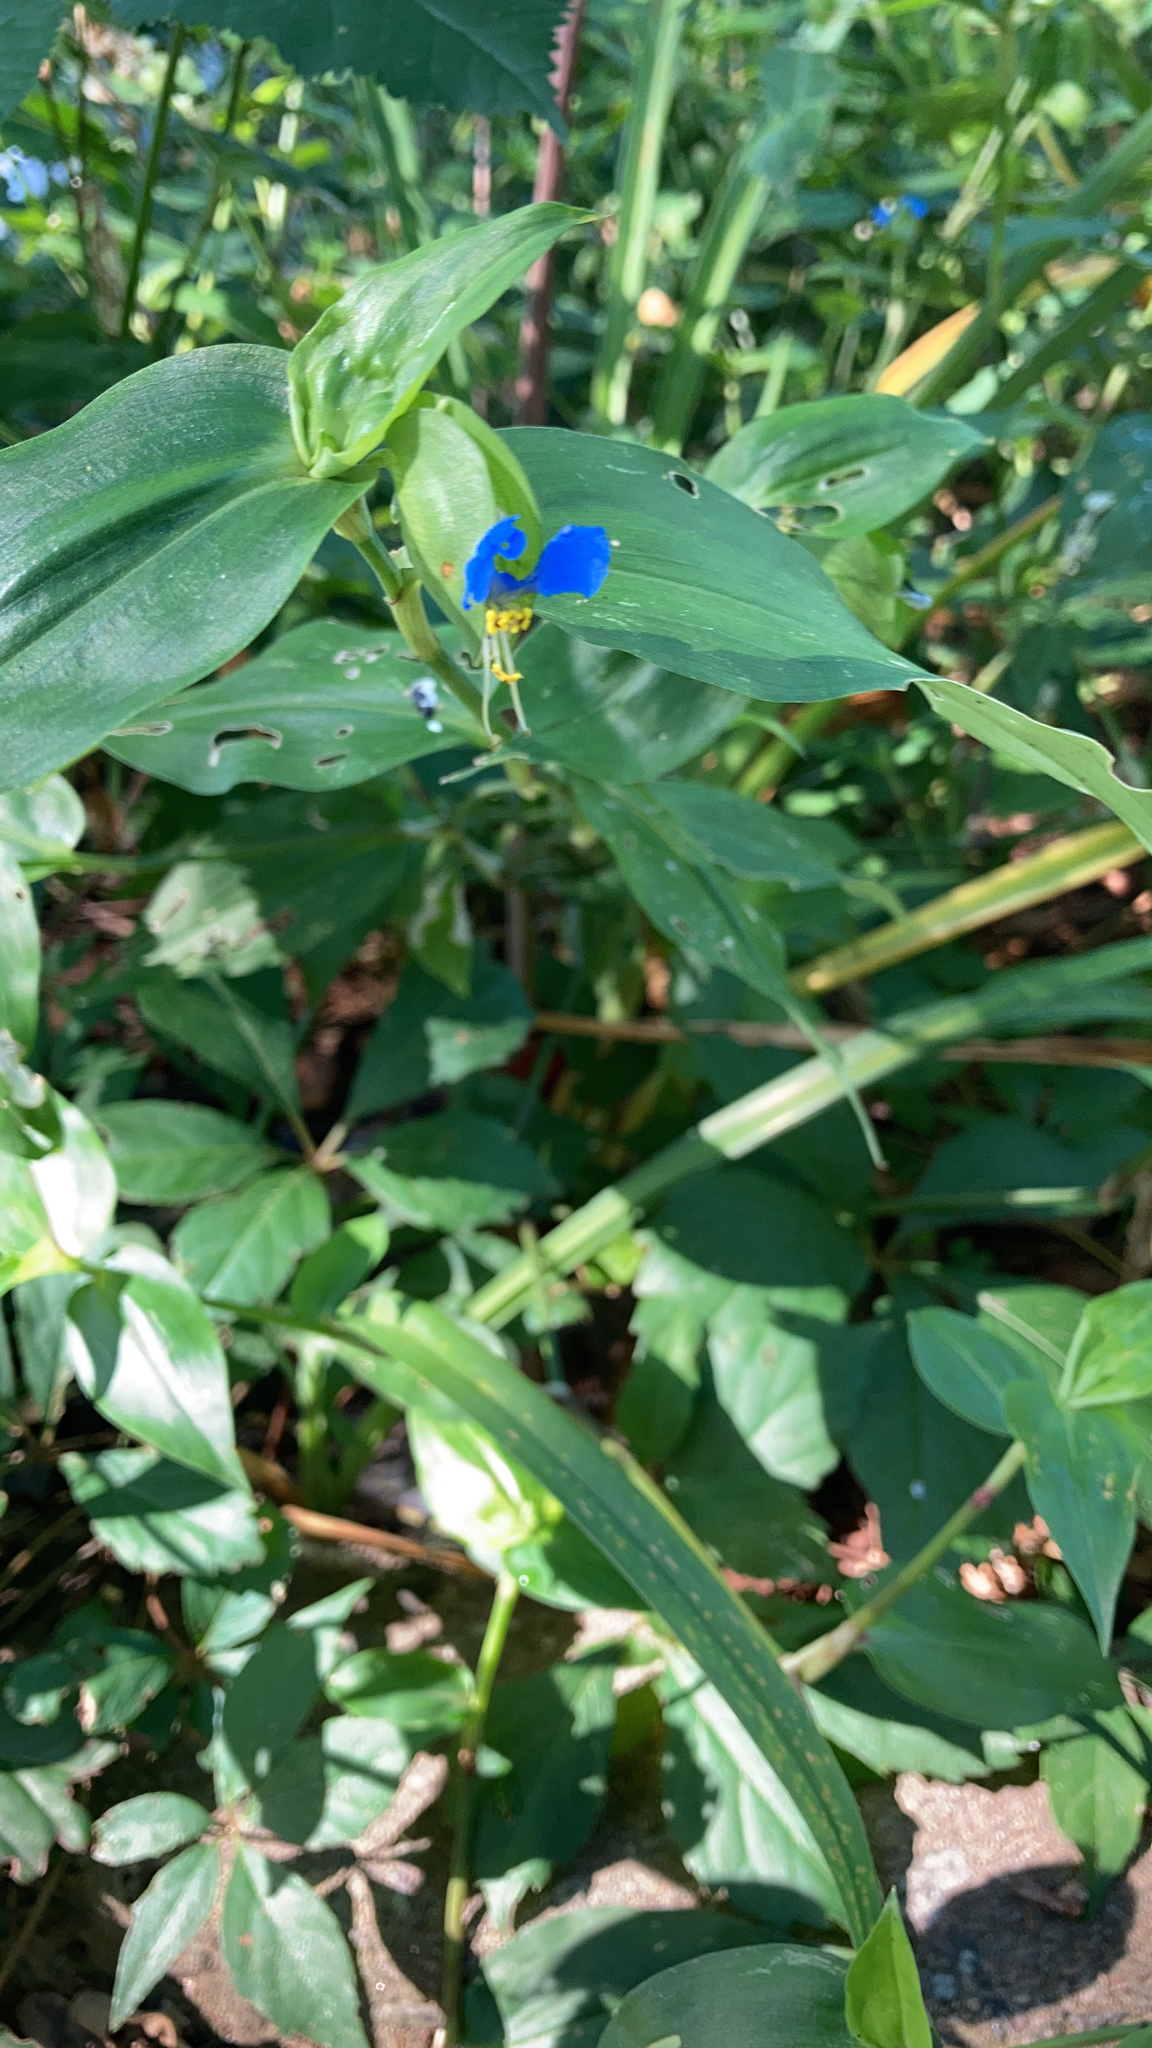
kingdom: Plantae
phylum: Tracheophyta
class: Liliopsida
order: Commelinales
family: Commelinaceae
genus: Commelina
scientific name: Commelina communis
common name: Asiatic dayflower
